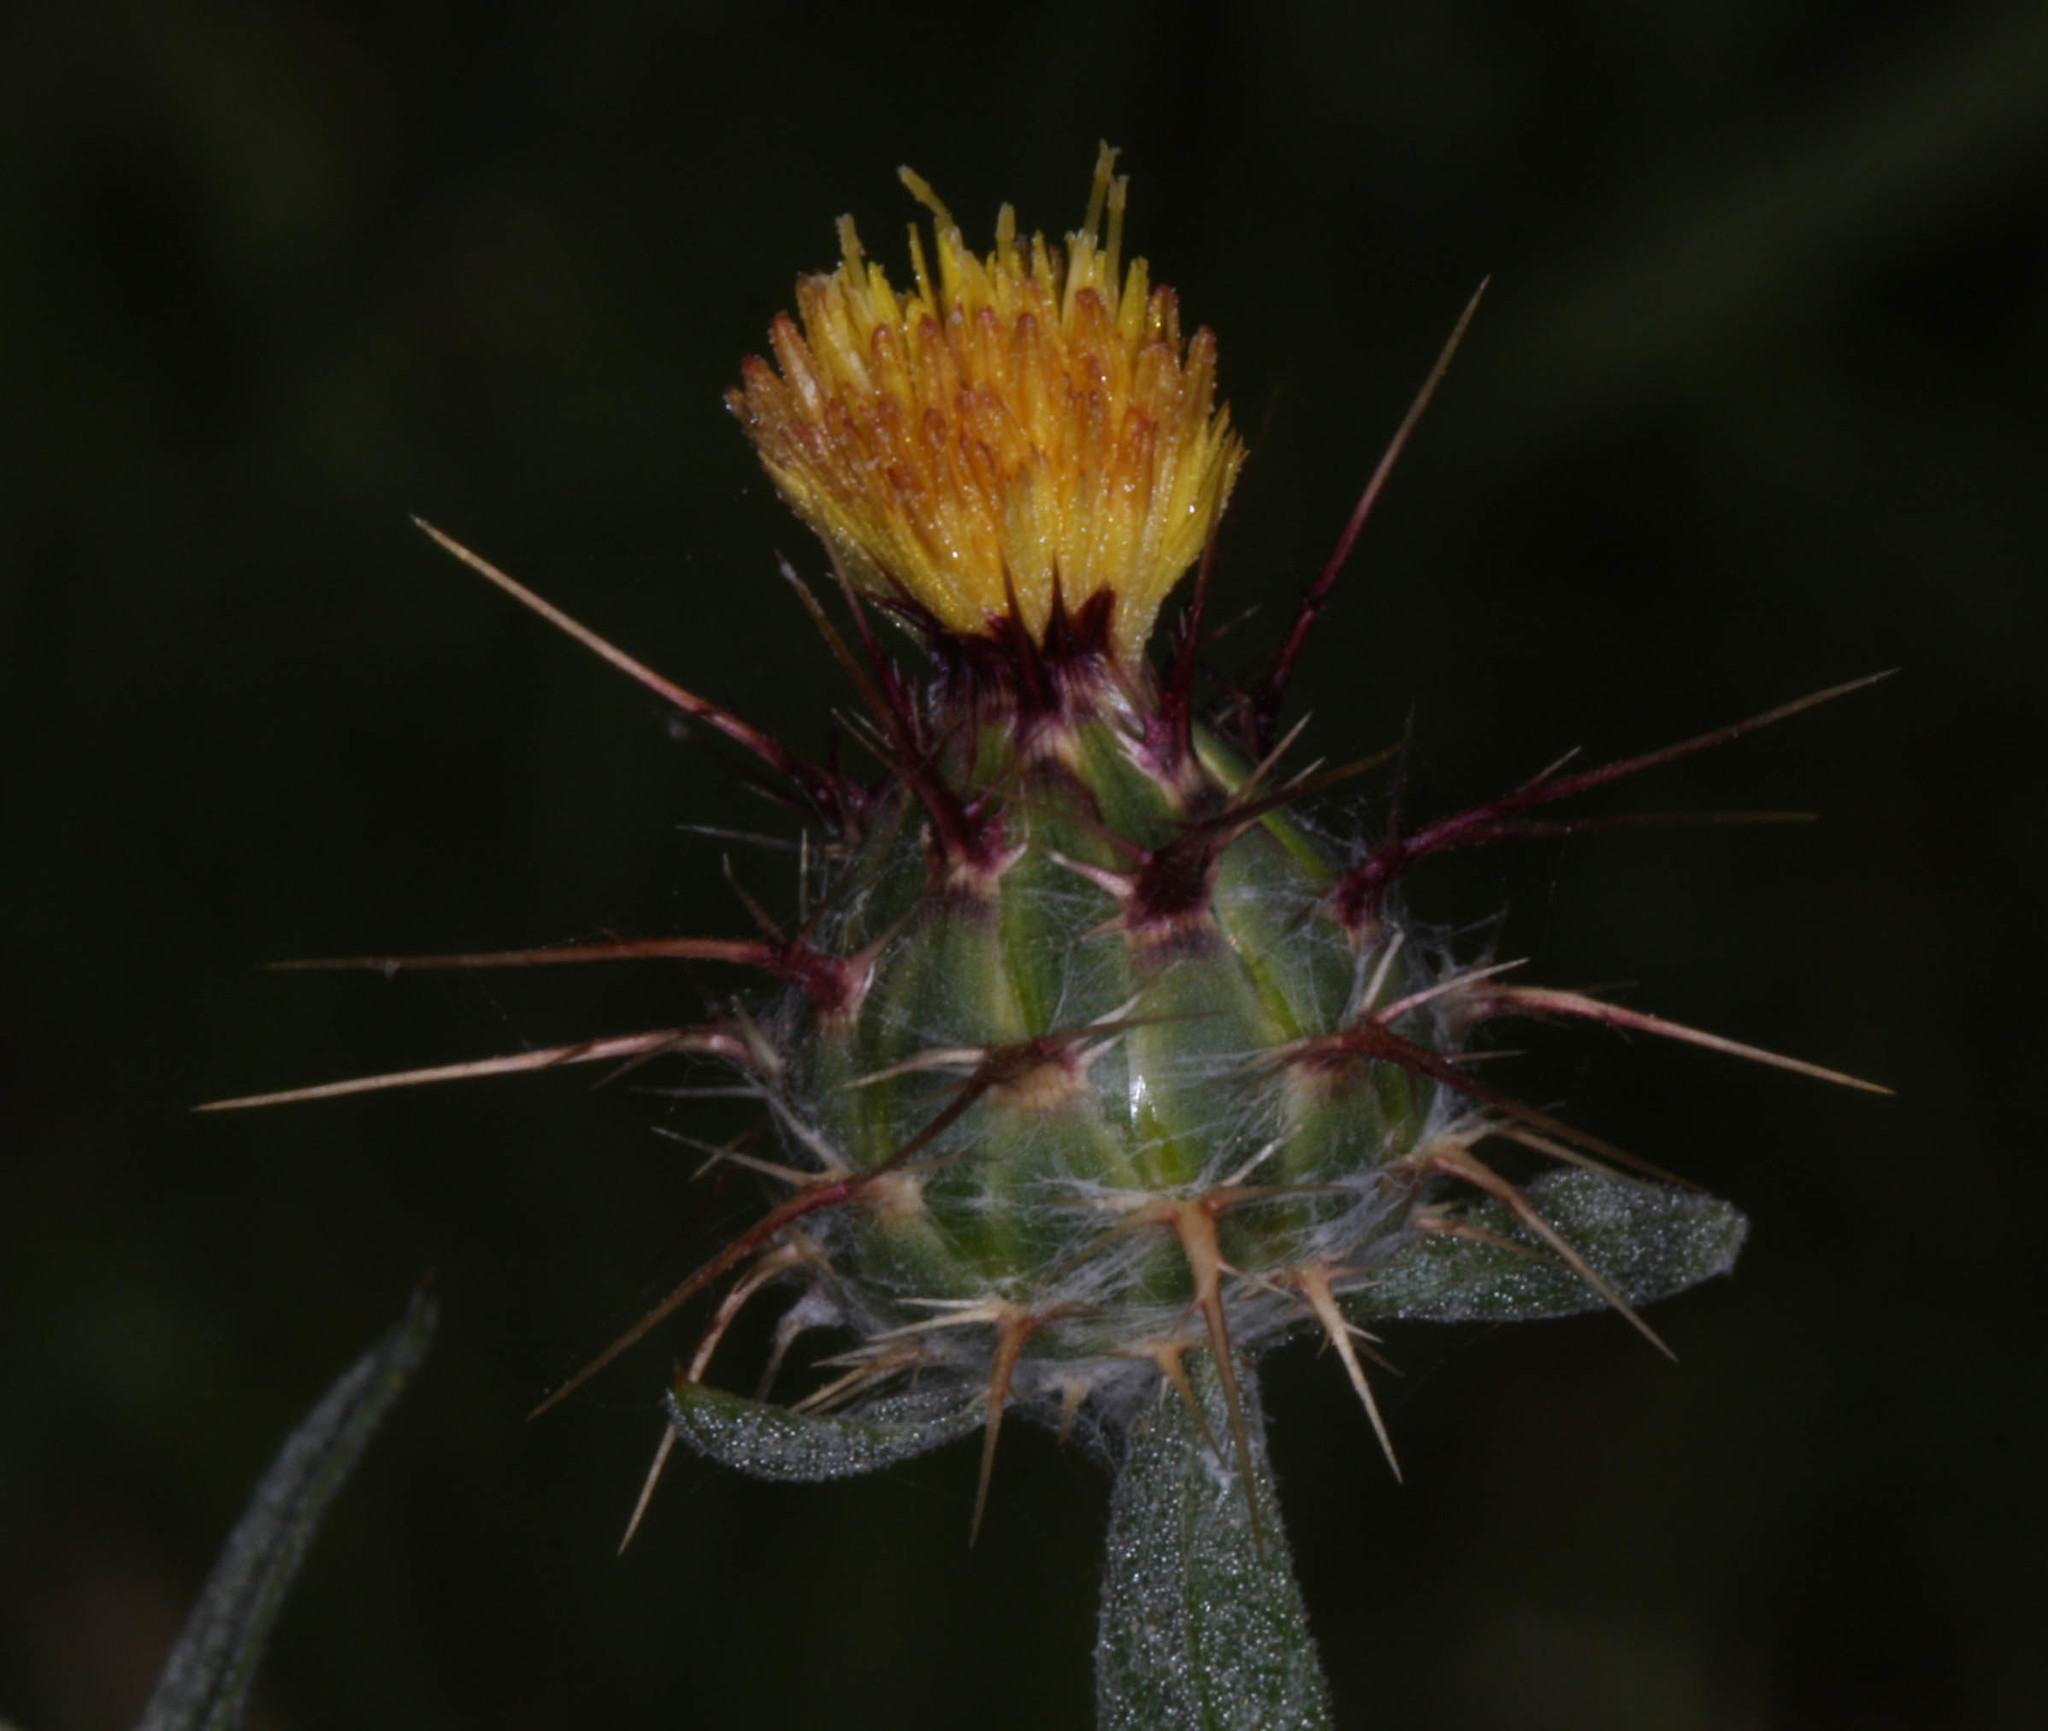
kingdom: Plantae
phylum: Tracheophyta
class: Magnoliopsida
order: Asterales
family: Asteraceae
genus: Centaurea
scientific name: Centaurea melitensis
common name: Maltese star-thistle
